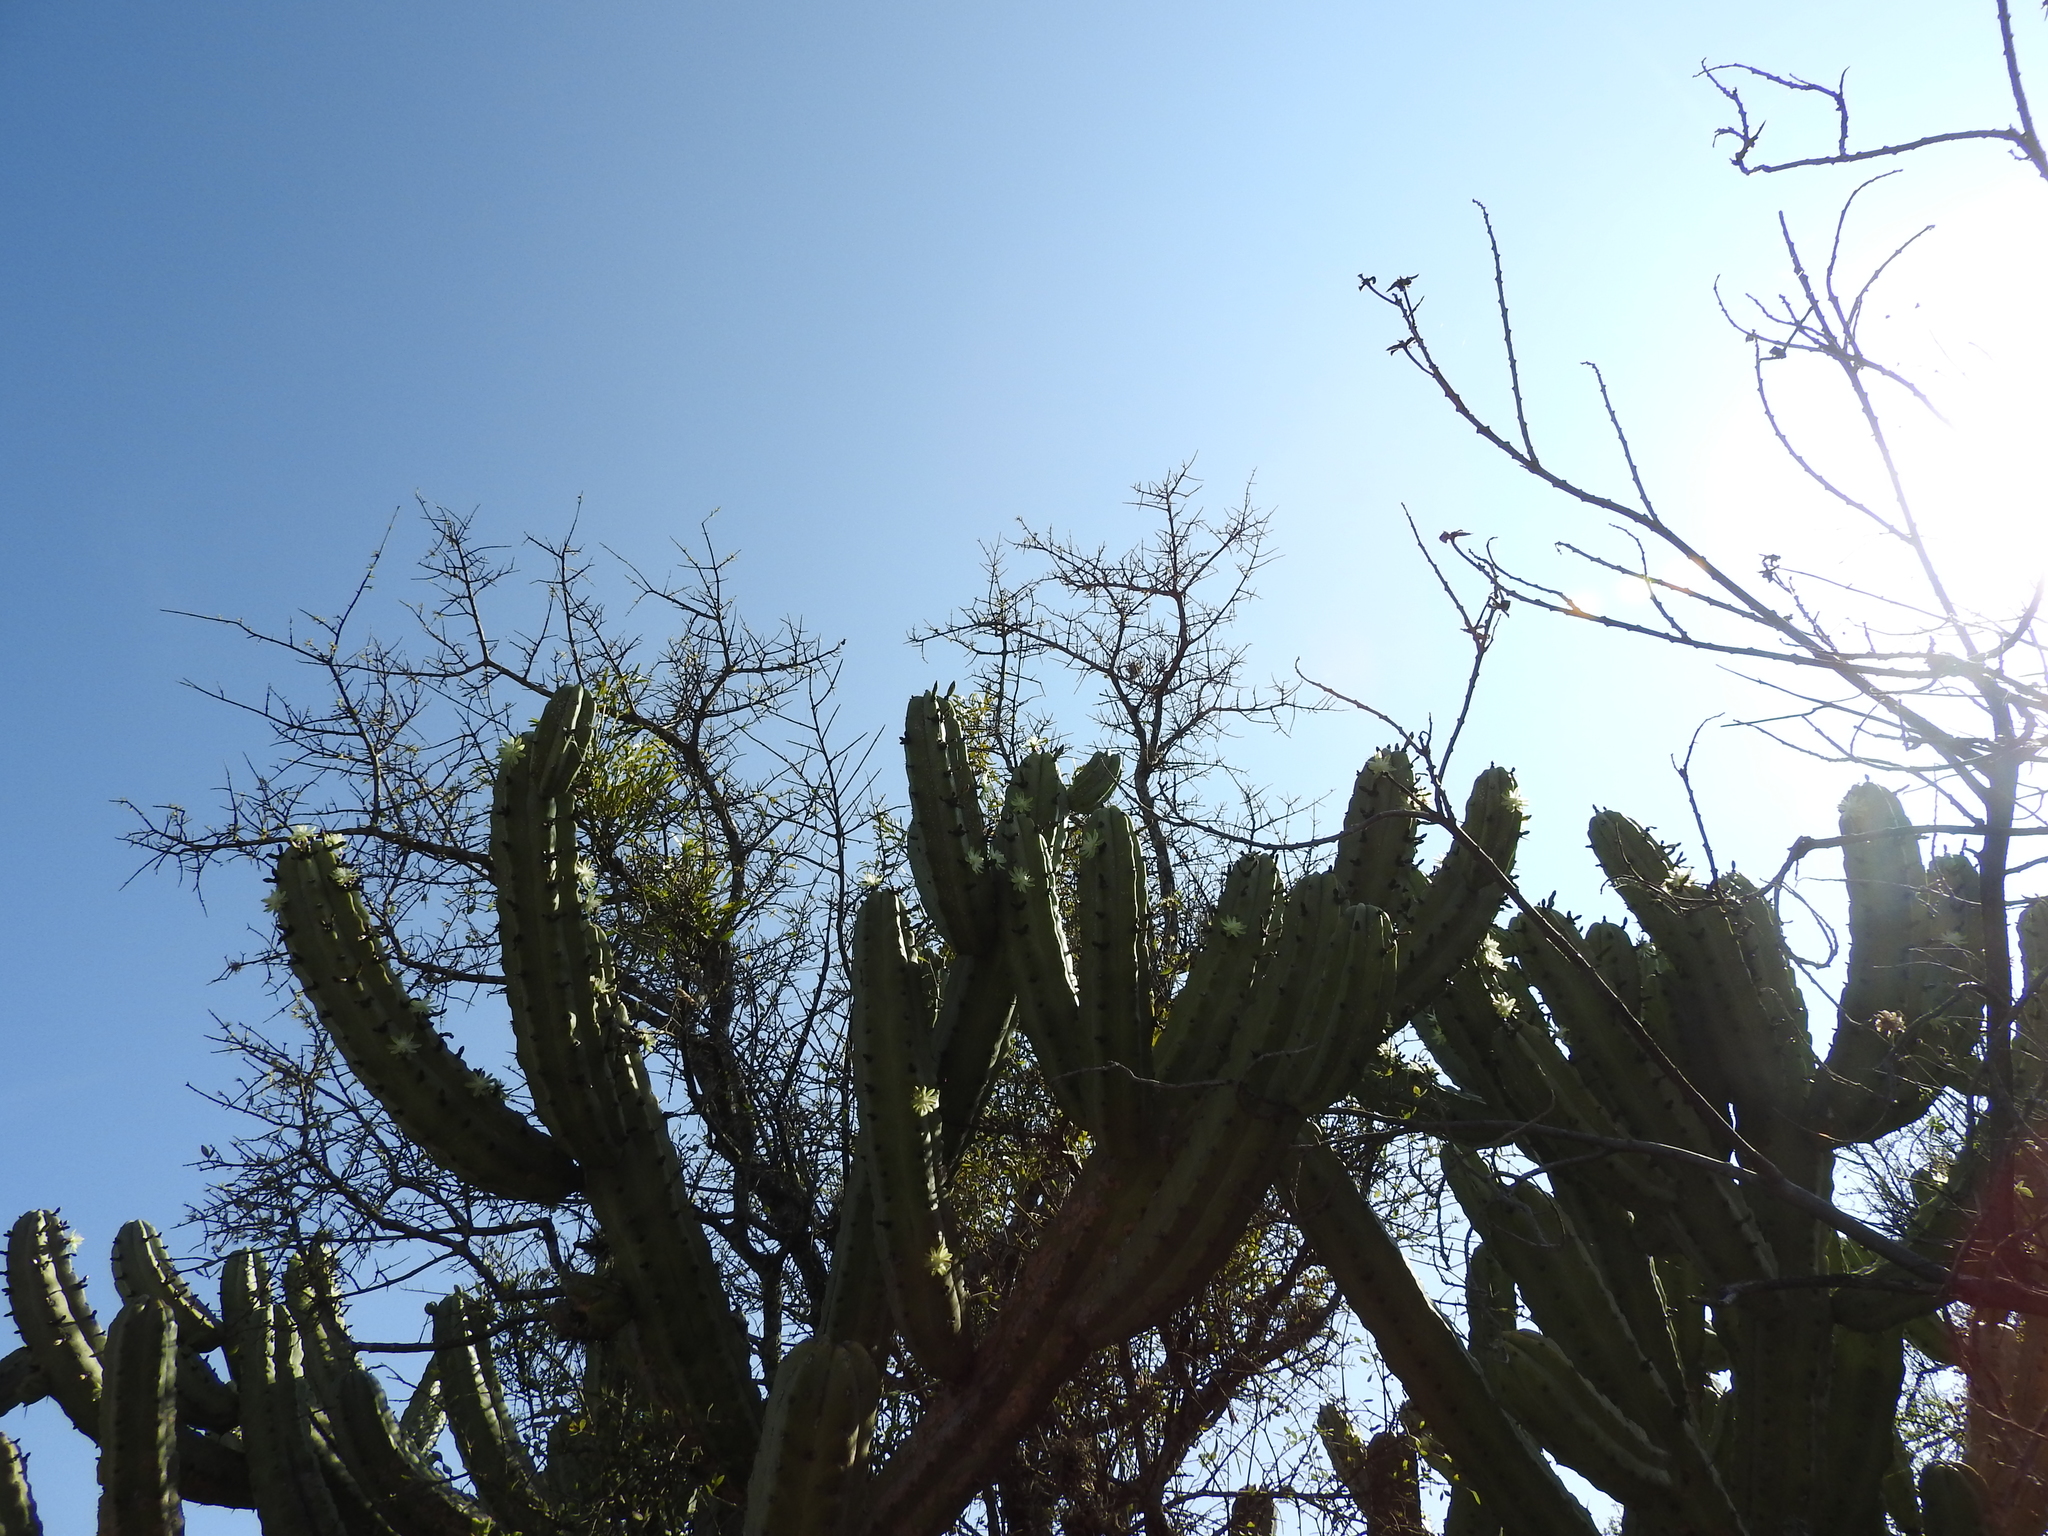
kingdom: Plantae
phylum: Tracheophyta
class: Magnoliopsida
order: Caryophyllales
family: Cactaceae
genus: Myrtillocactus
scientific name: Myrtillocactus geometrizans
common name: Bilberry cactus
